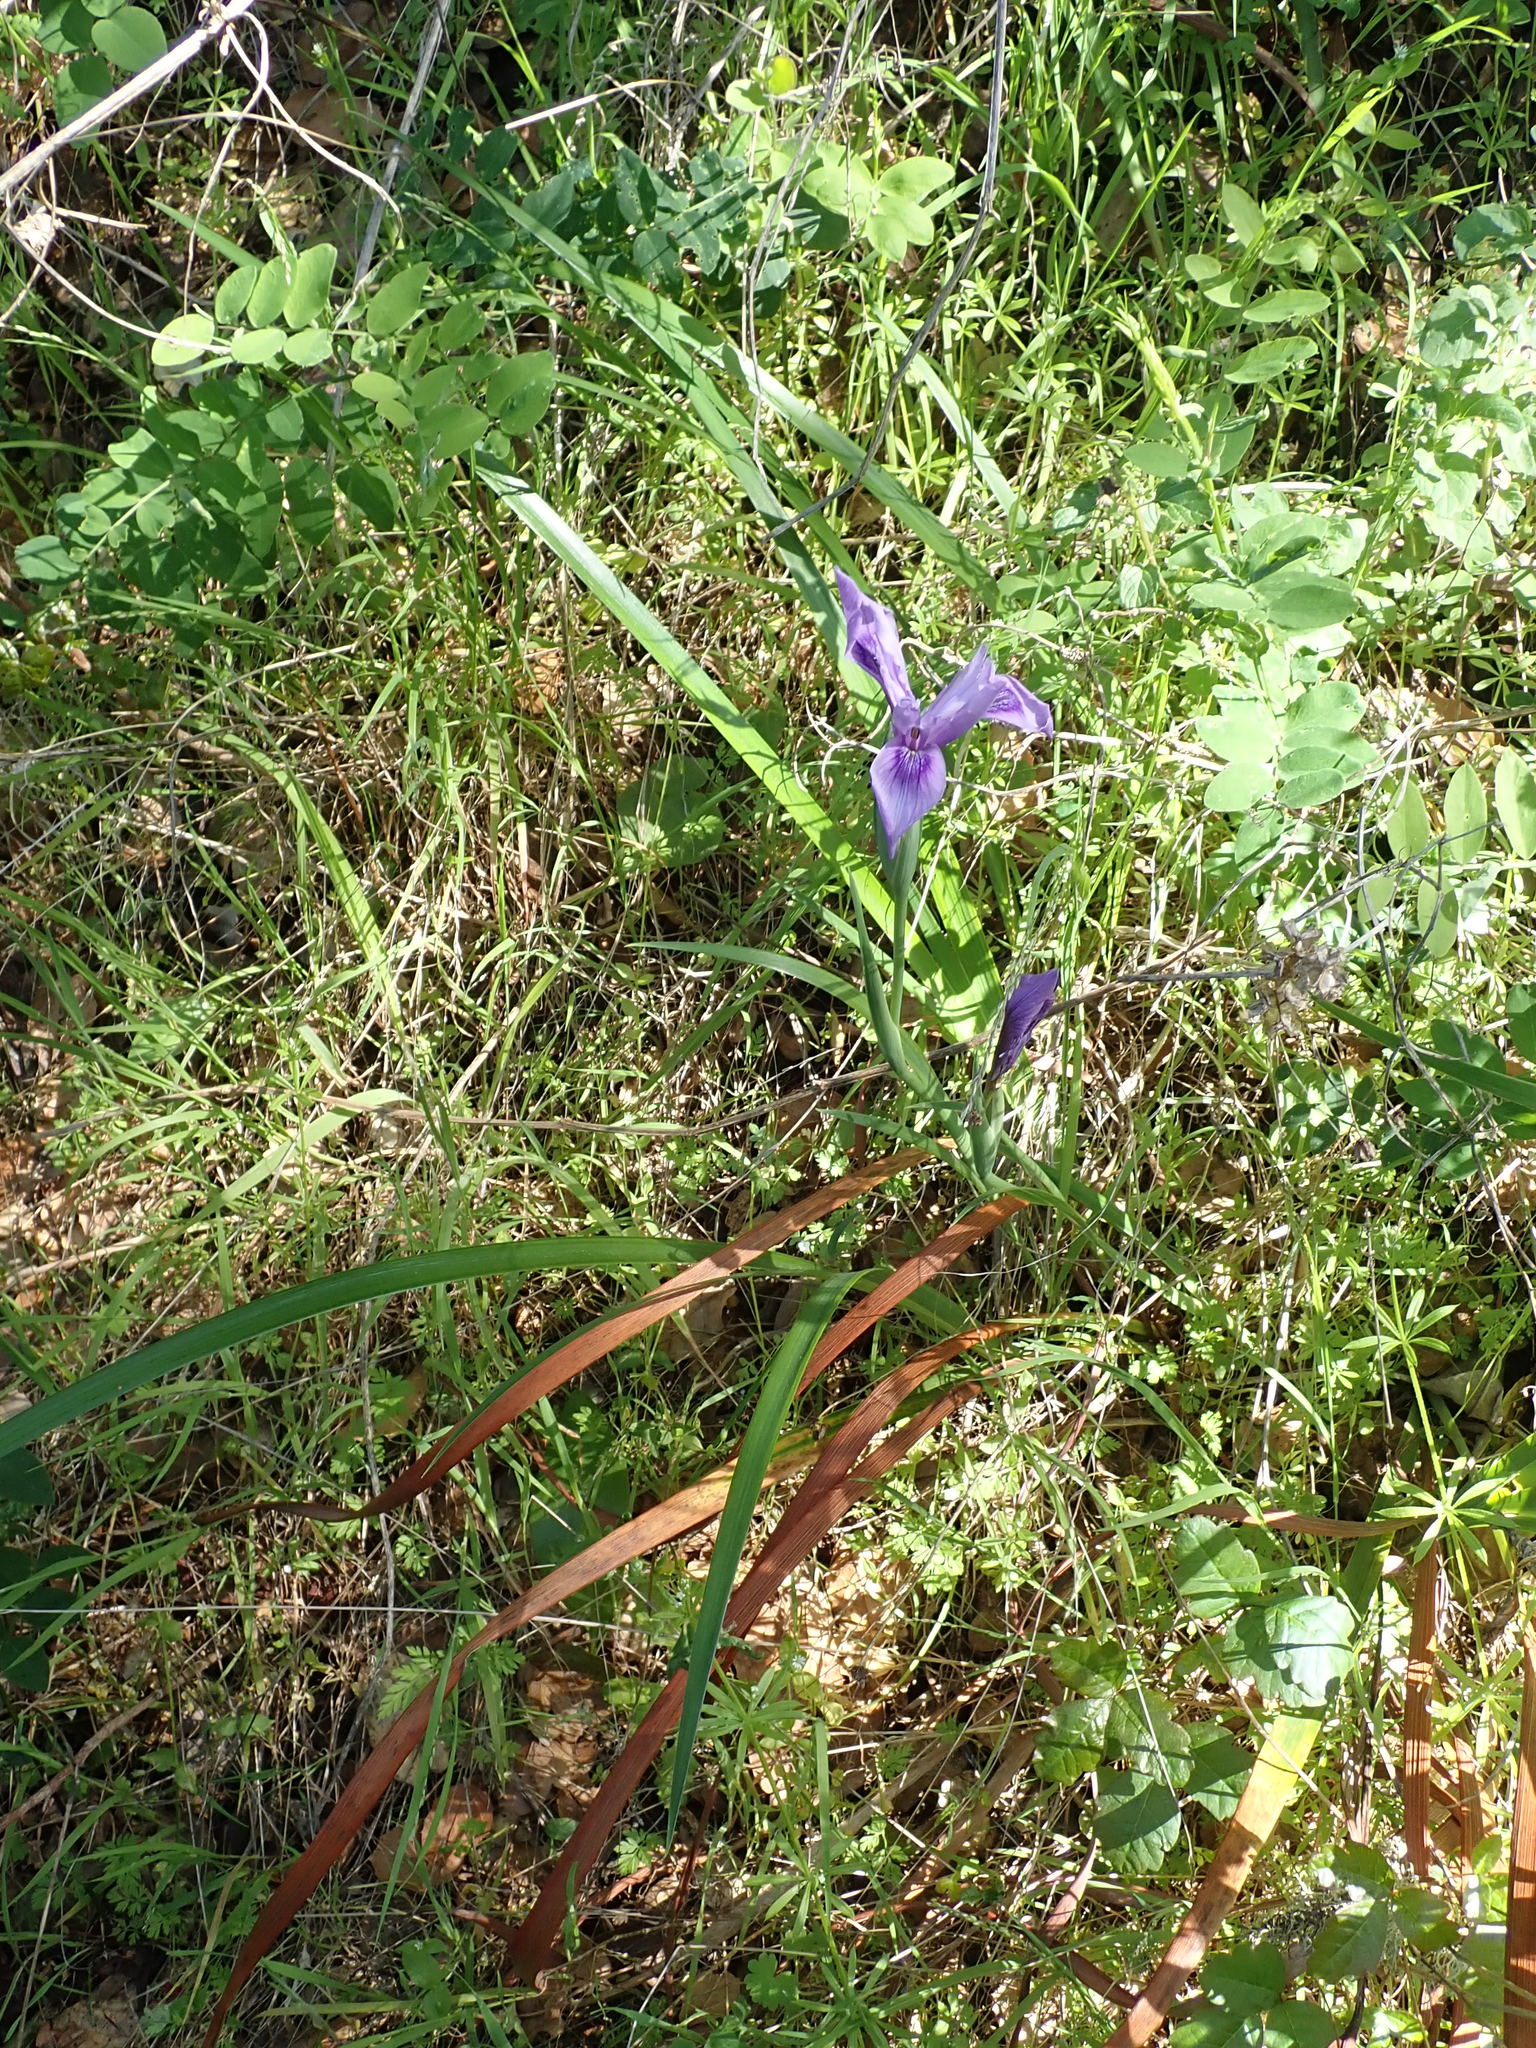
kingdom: Plantae
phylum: Tracheophyta
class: Liliopsida
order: Asparagales
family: Iridaceae
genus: Iris
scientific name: Iris douglasiana
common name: Marin iris
